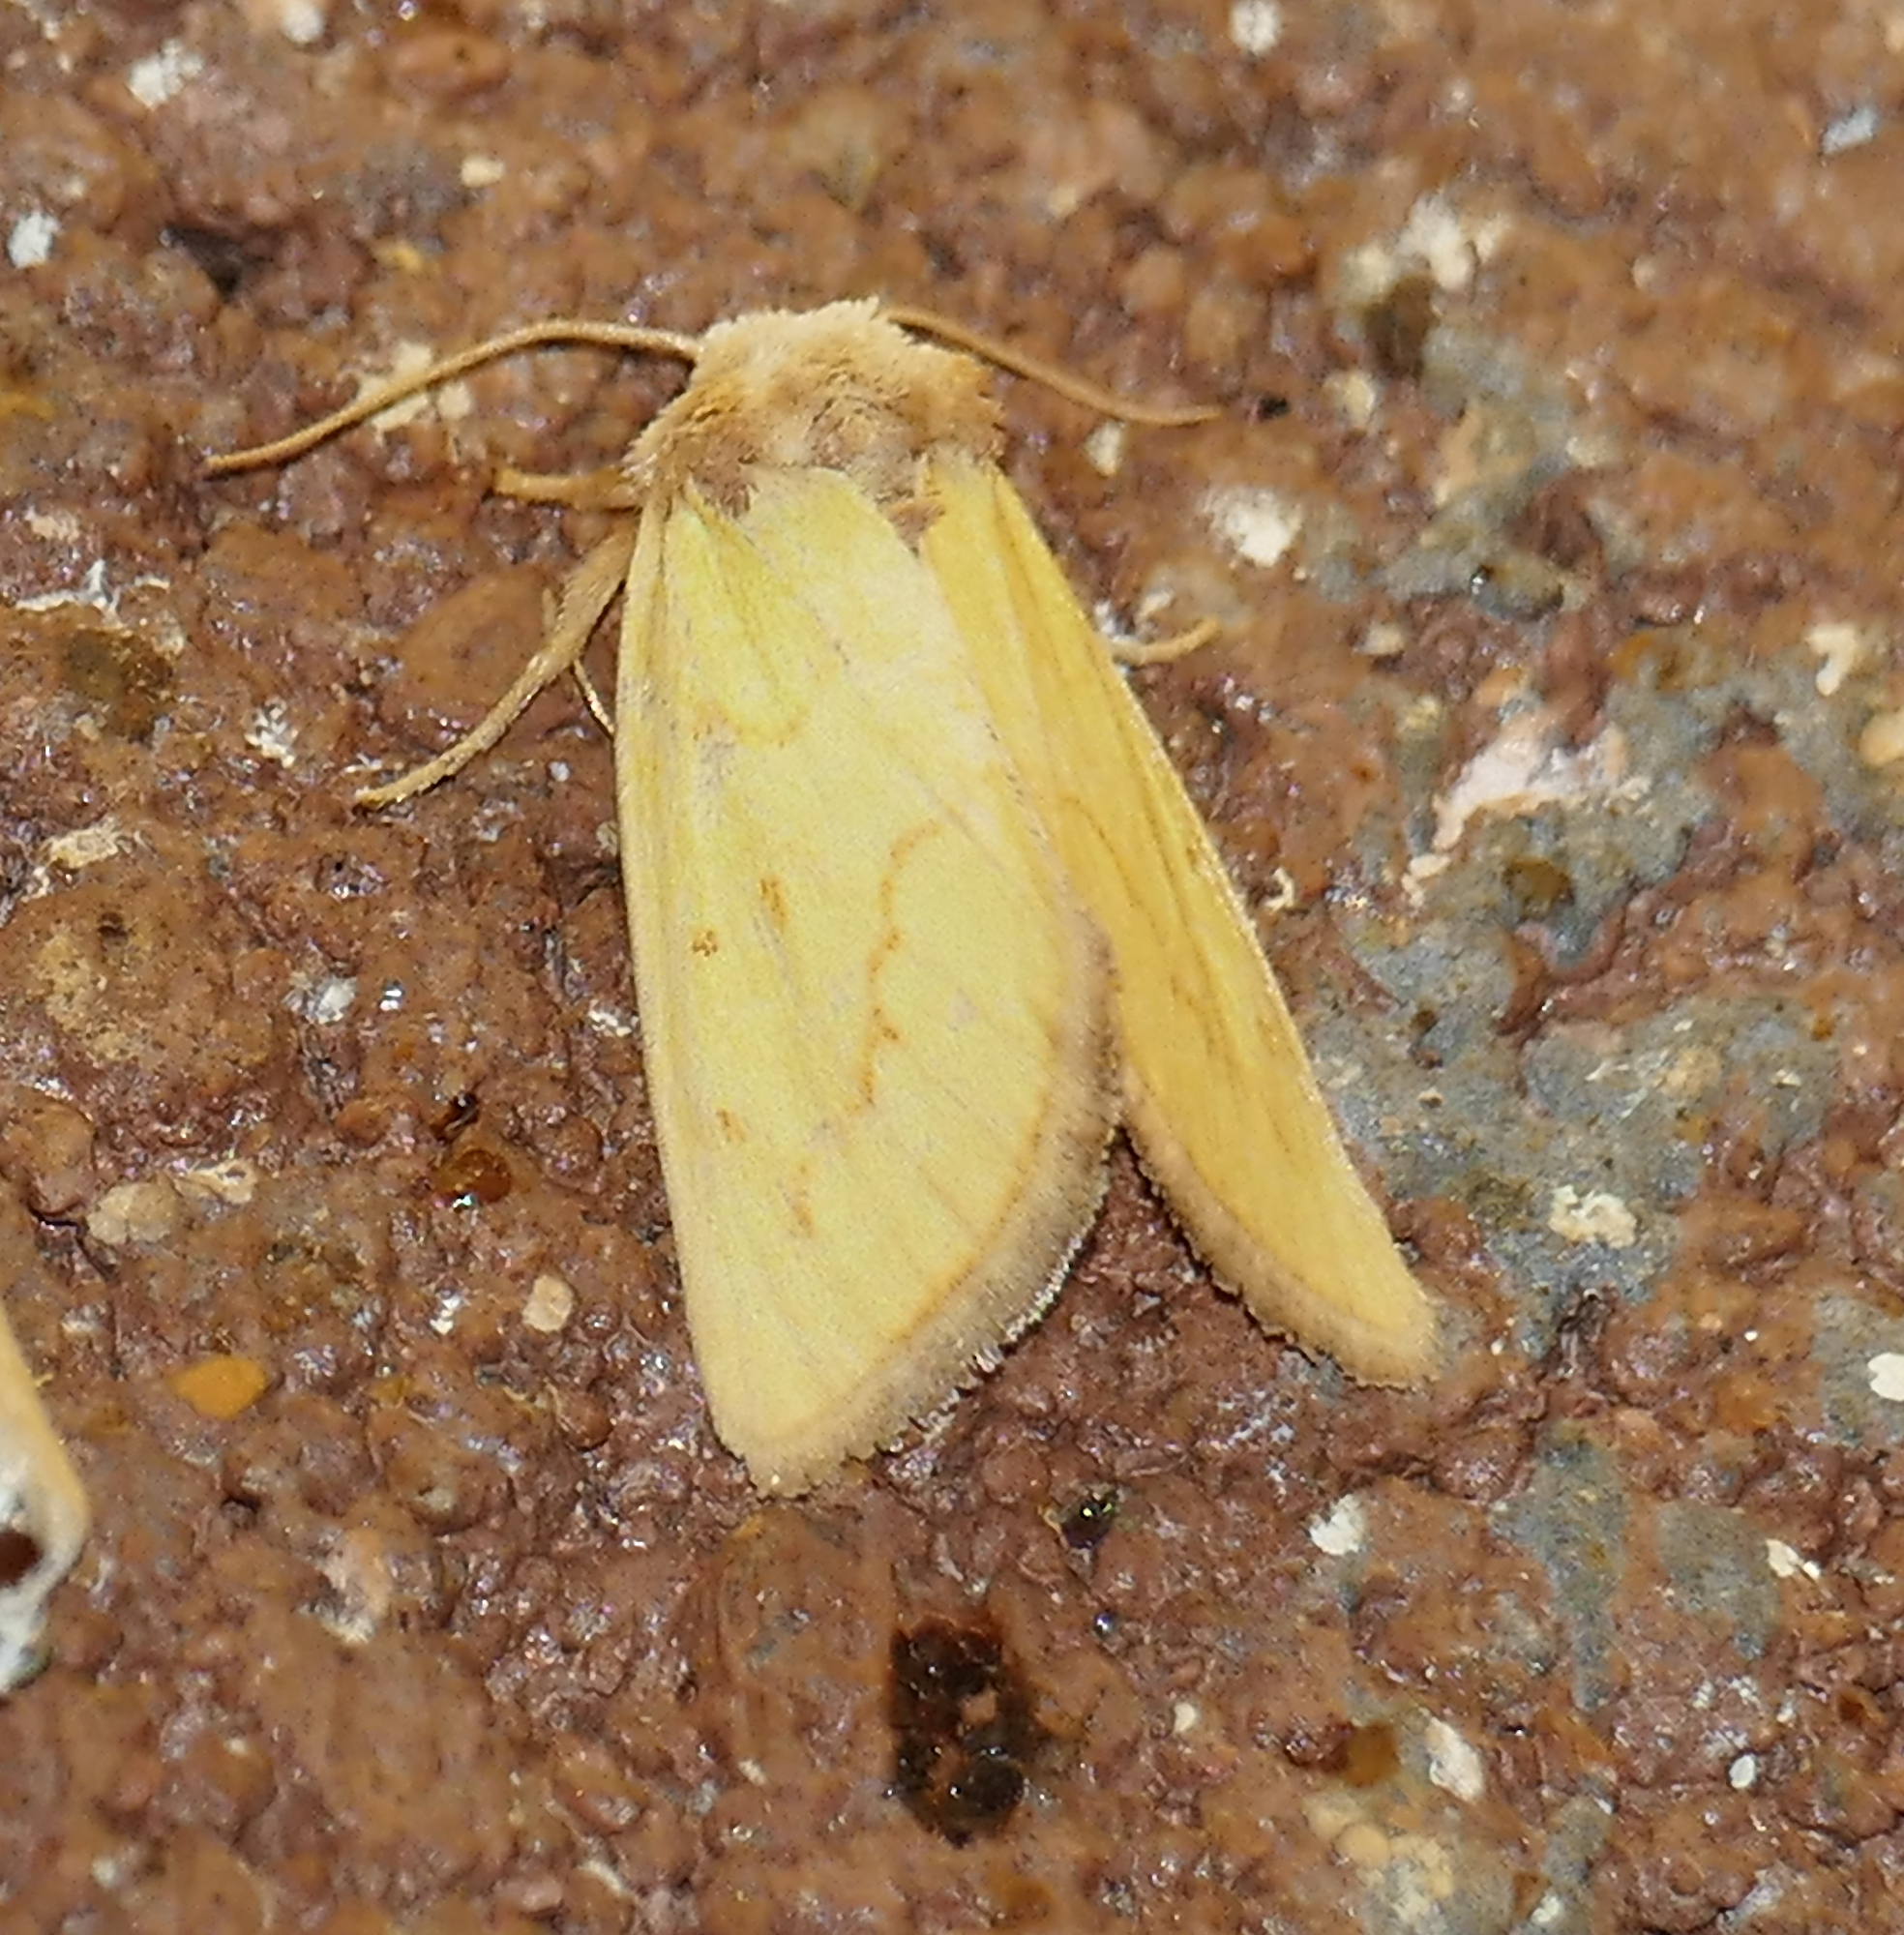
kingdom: Animalia
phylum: Arthropoda
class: Insecta
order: Lepidoptera
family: Noctuidae
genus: Nocloa
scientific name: Nocloa aliaga
